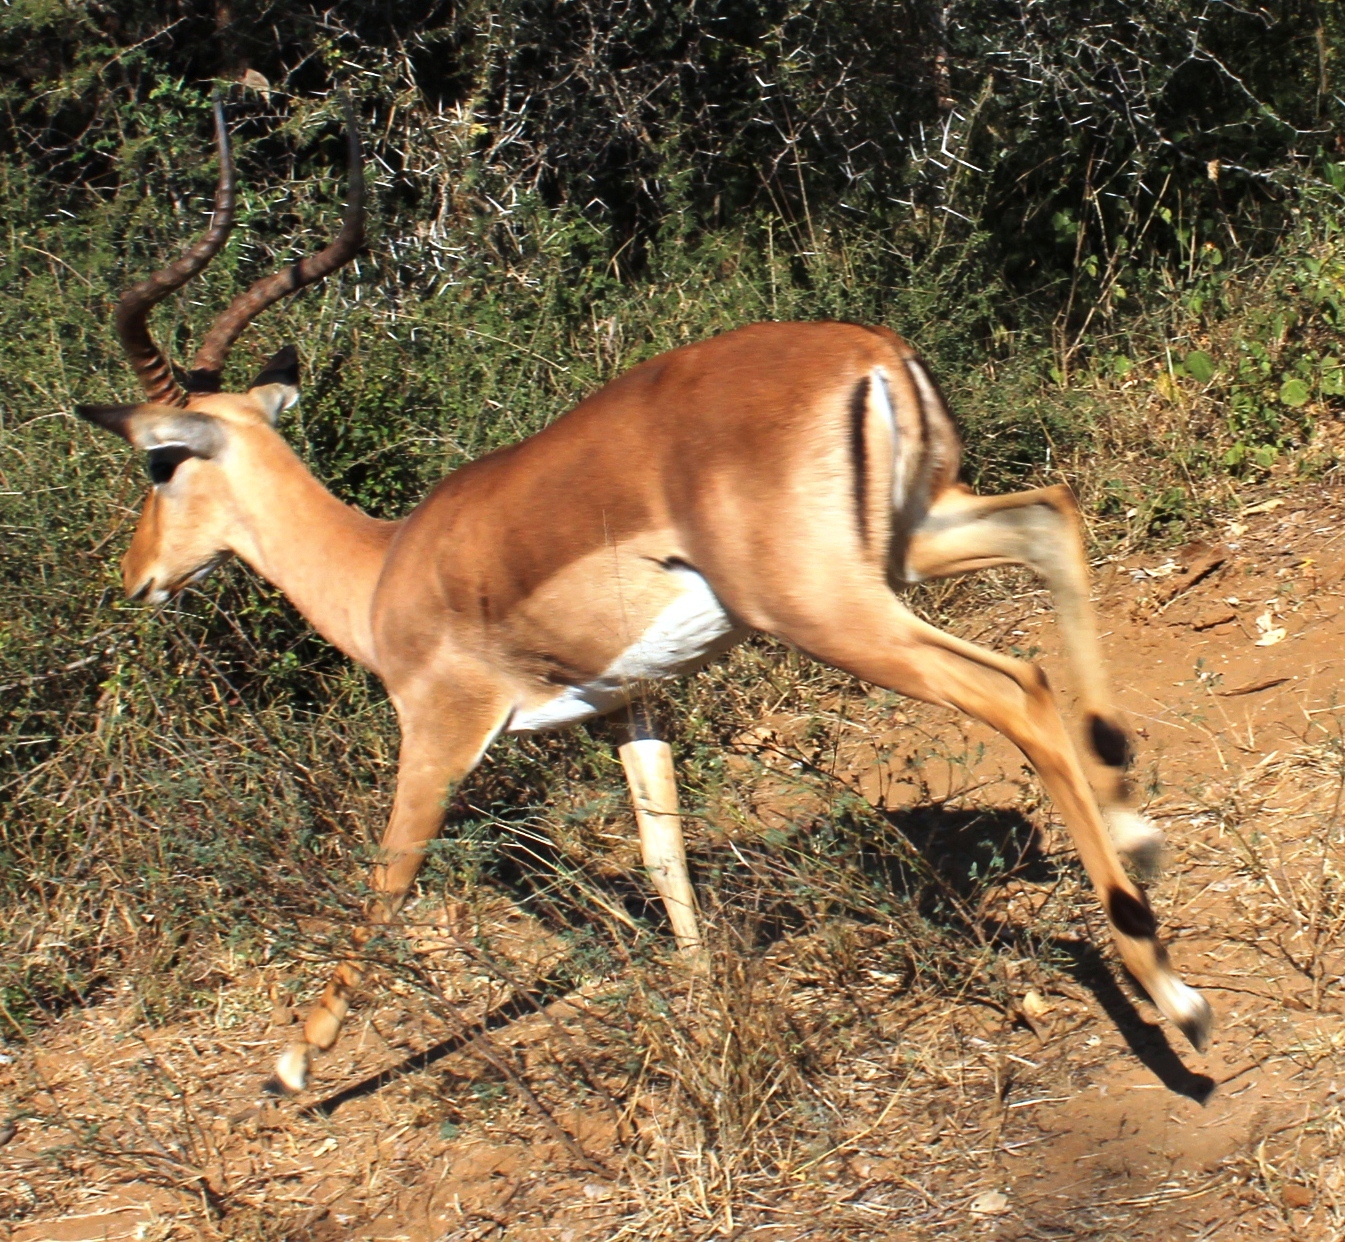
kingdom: Animalia
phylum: Chordata
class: Mammalia
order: Artiodactyla
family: Bovidae
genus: Aepyceros
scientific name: Aepyceros melampus
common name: Impala
